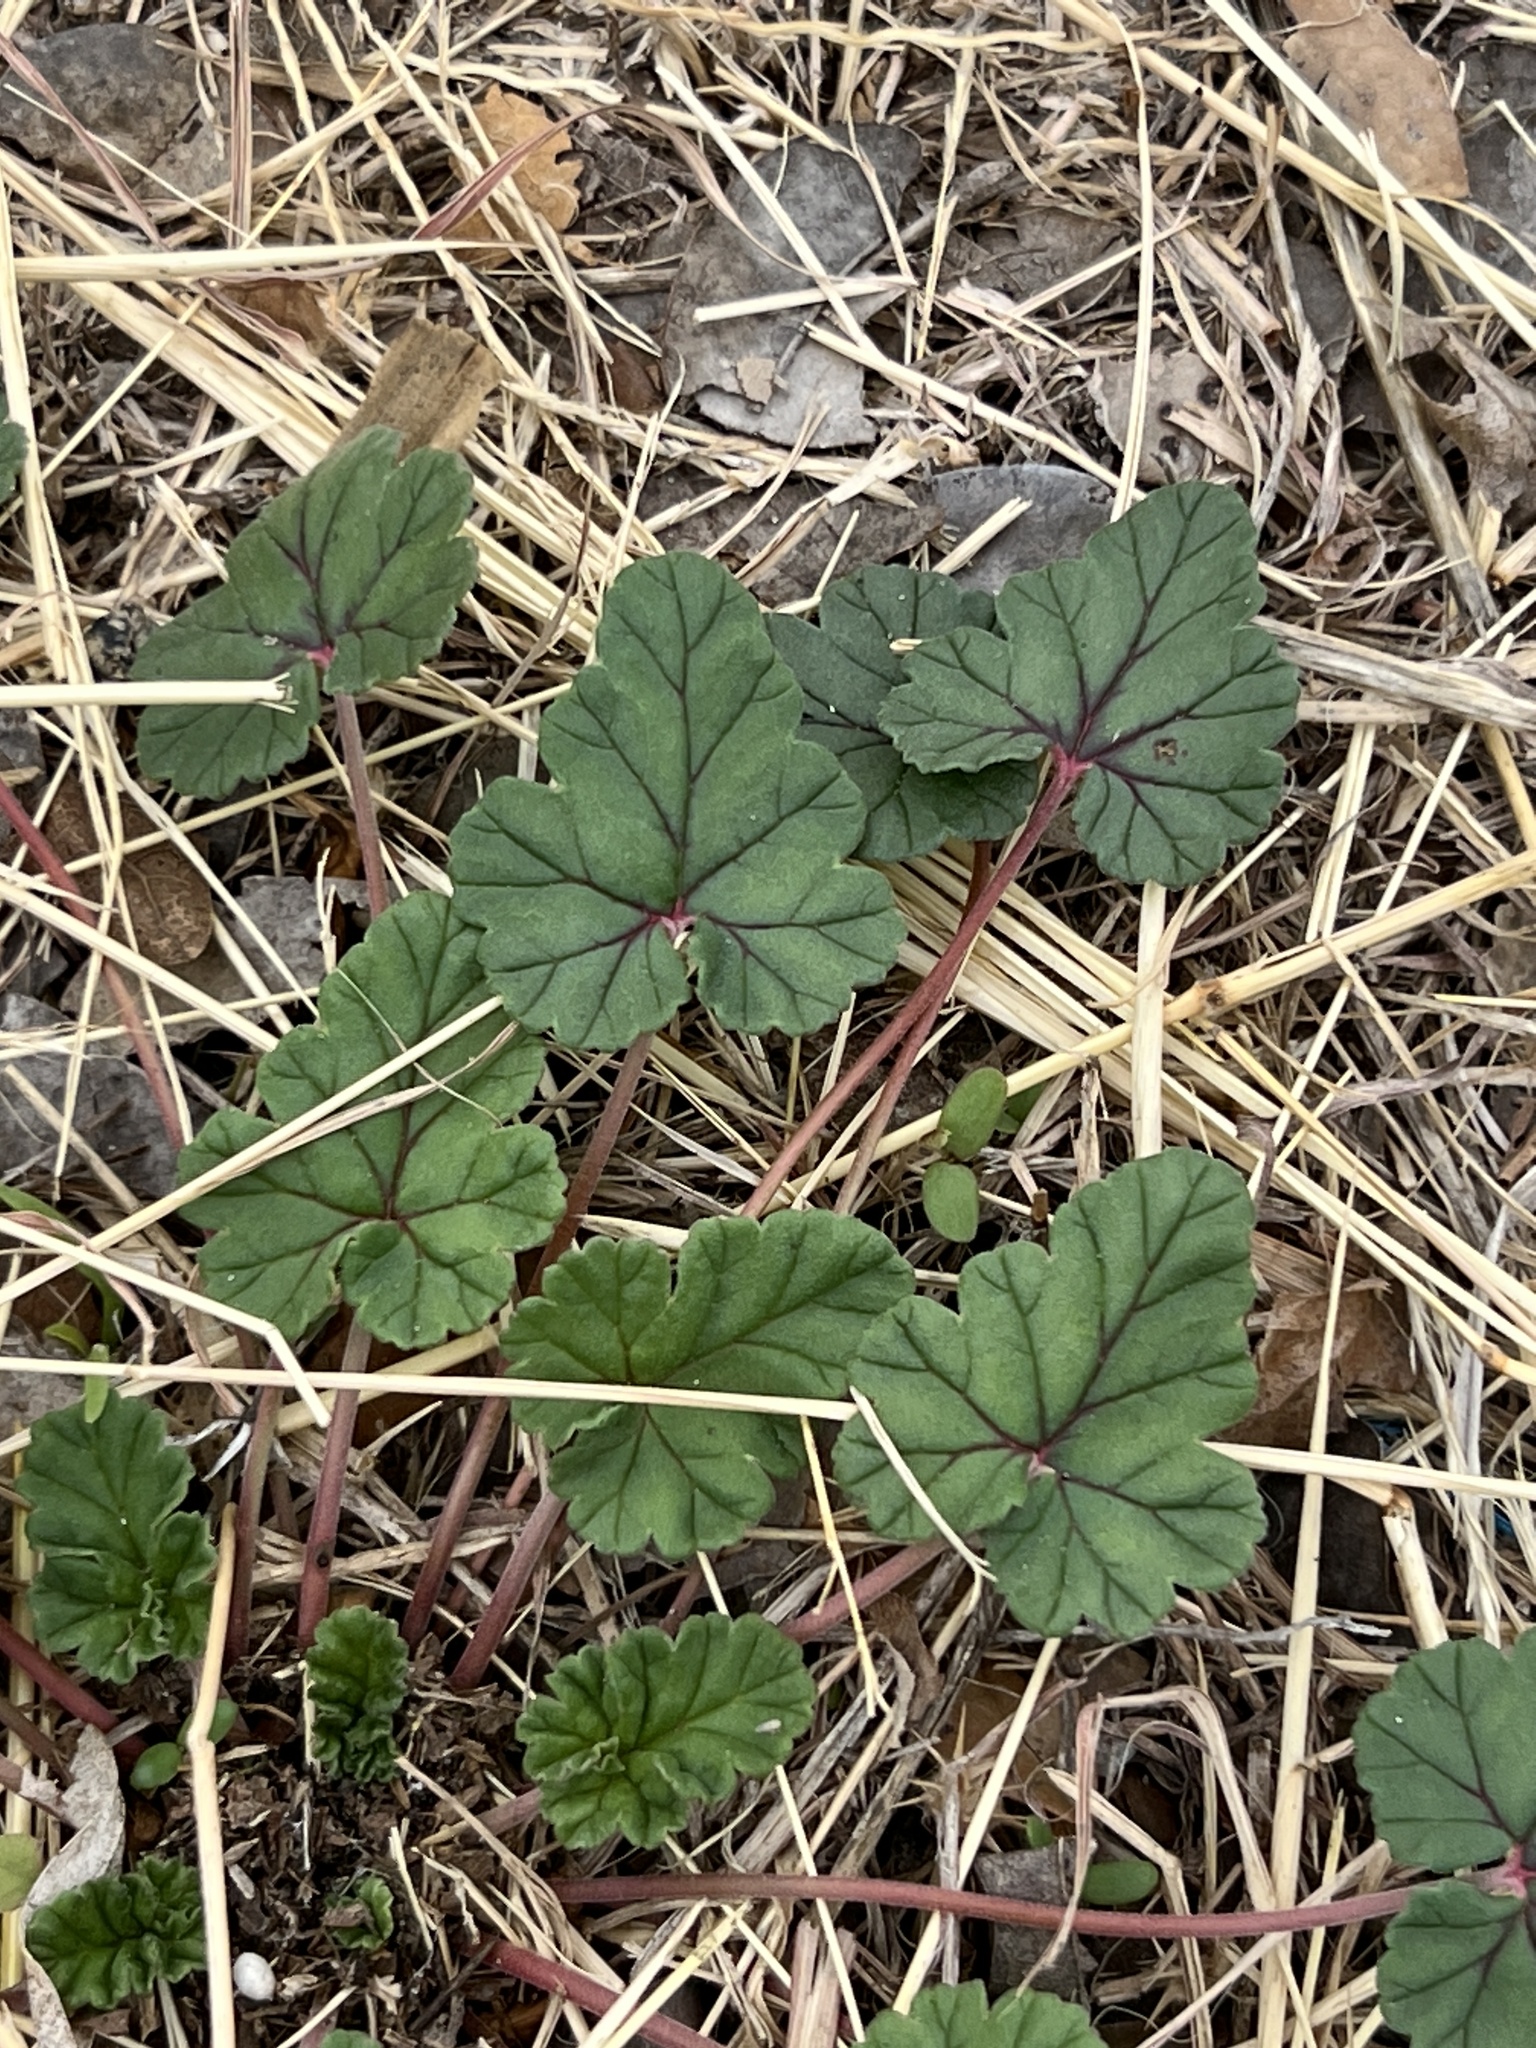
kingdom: Plantae
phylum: Tracheophyta
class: Magnoliopsida
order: Geraniales
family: Geraniaceae
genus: Erodium
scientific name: Erodium texanum
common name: Texas stork's-bill
